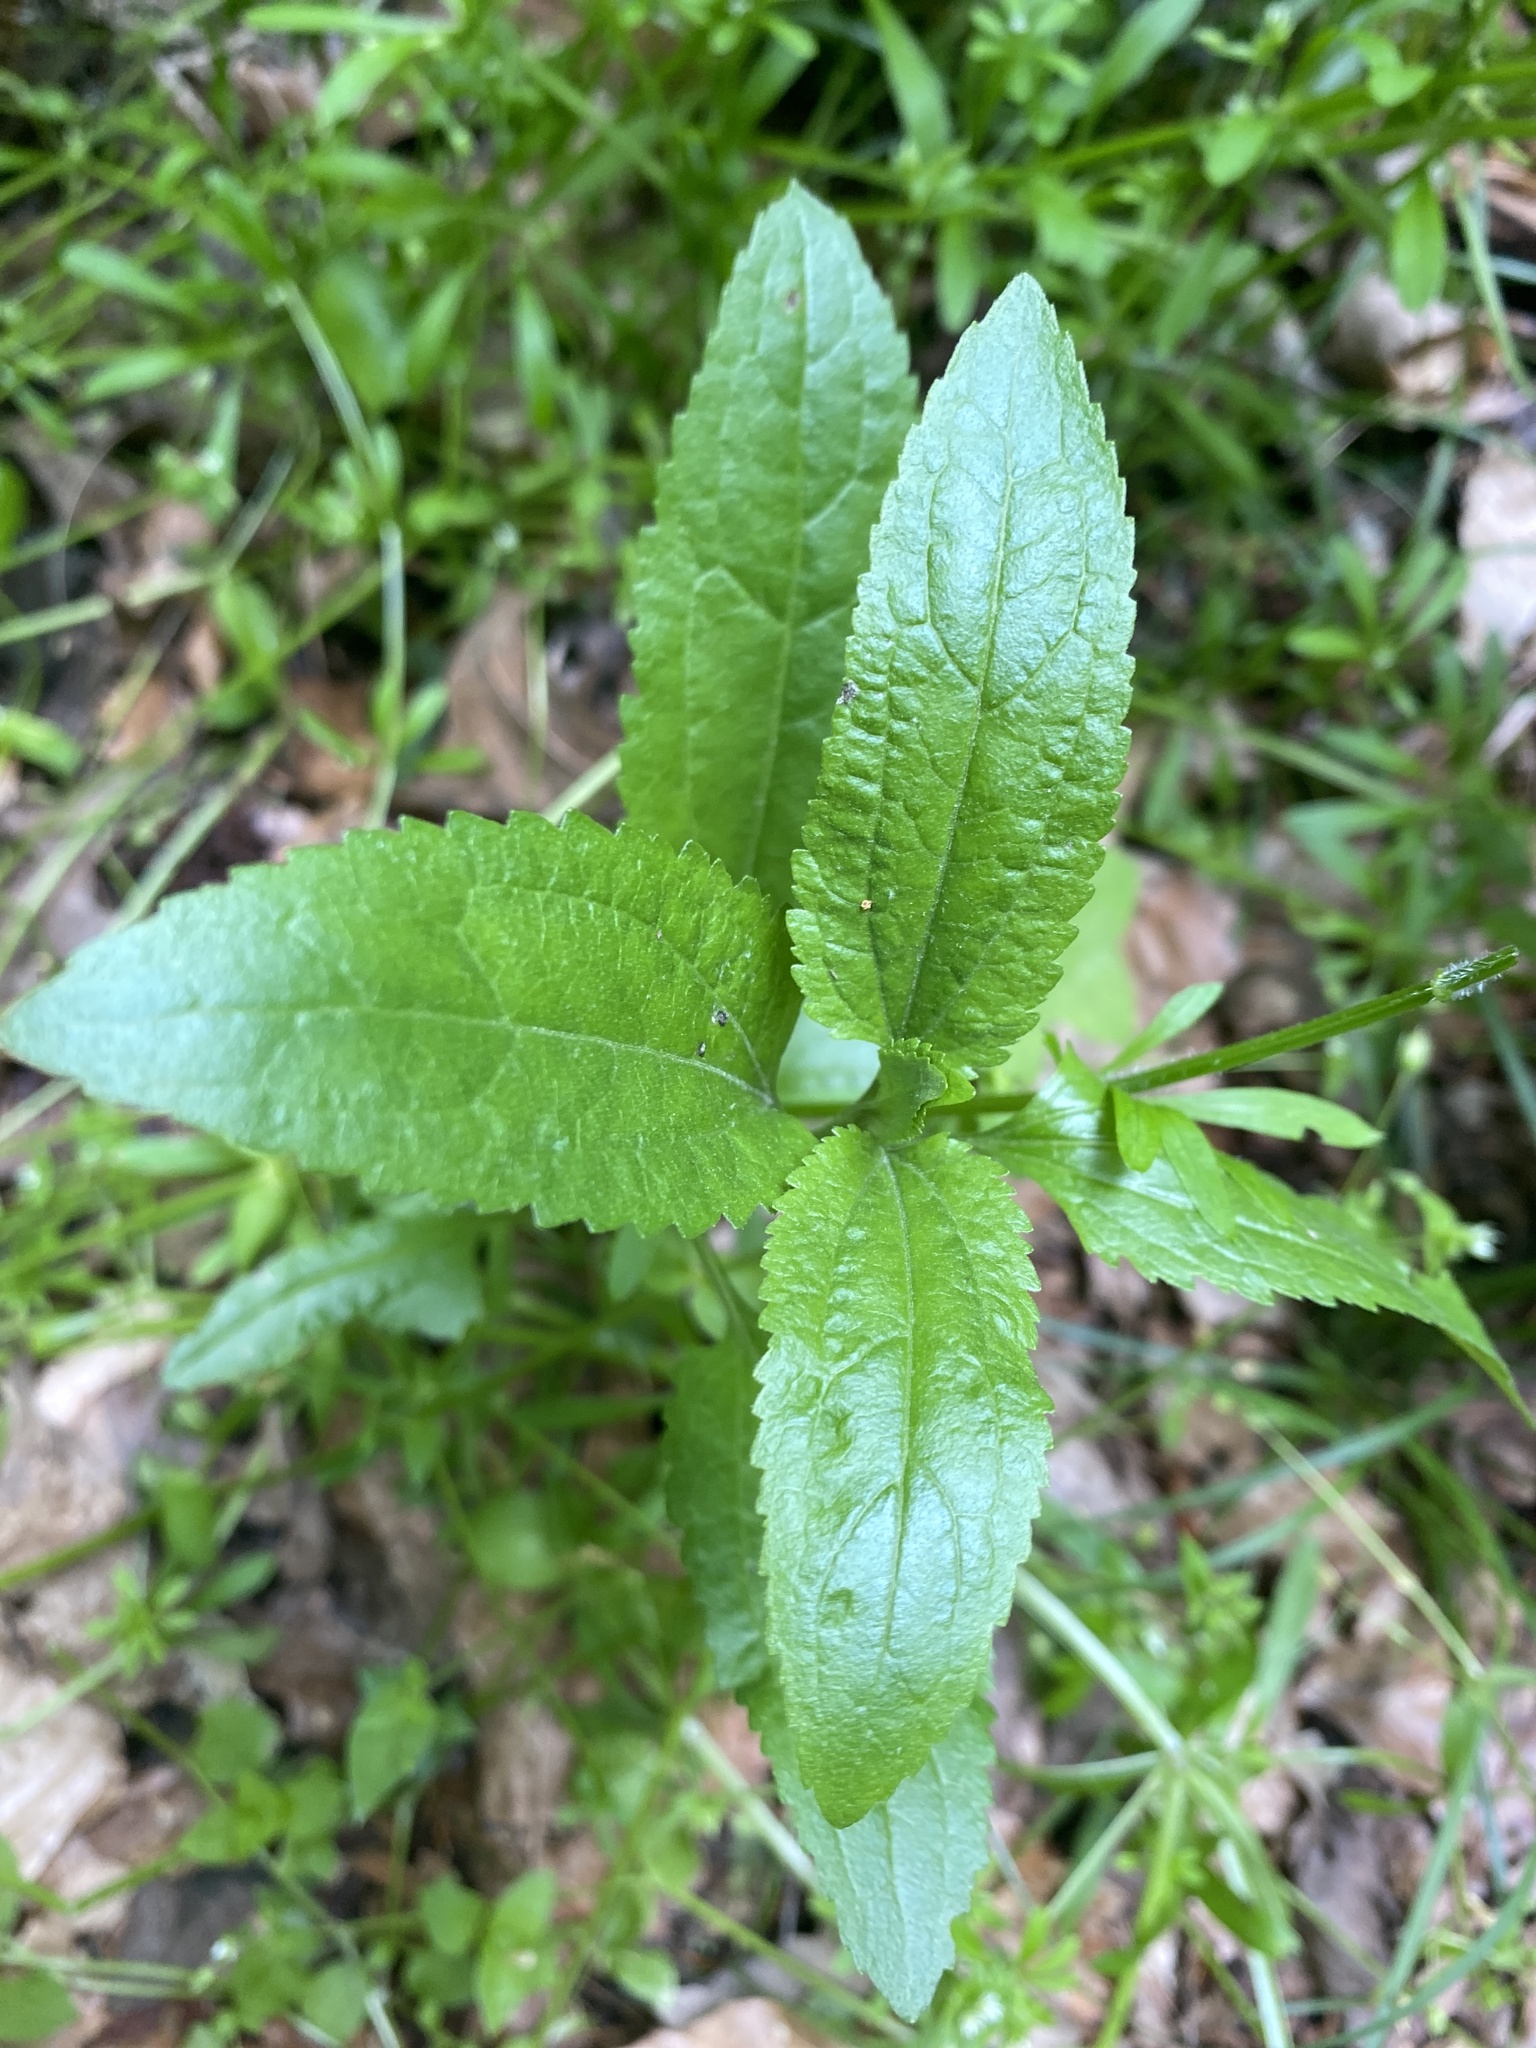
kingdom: Plantae
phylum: Tracheophyta
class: Magnoliopsida
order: Asterales
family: Asteraceae
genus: Eupatorium
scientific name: Eupatorium serotinum
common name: Late boneset
